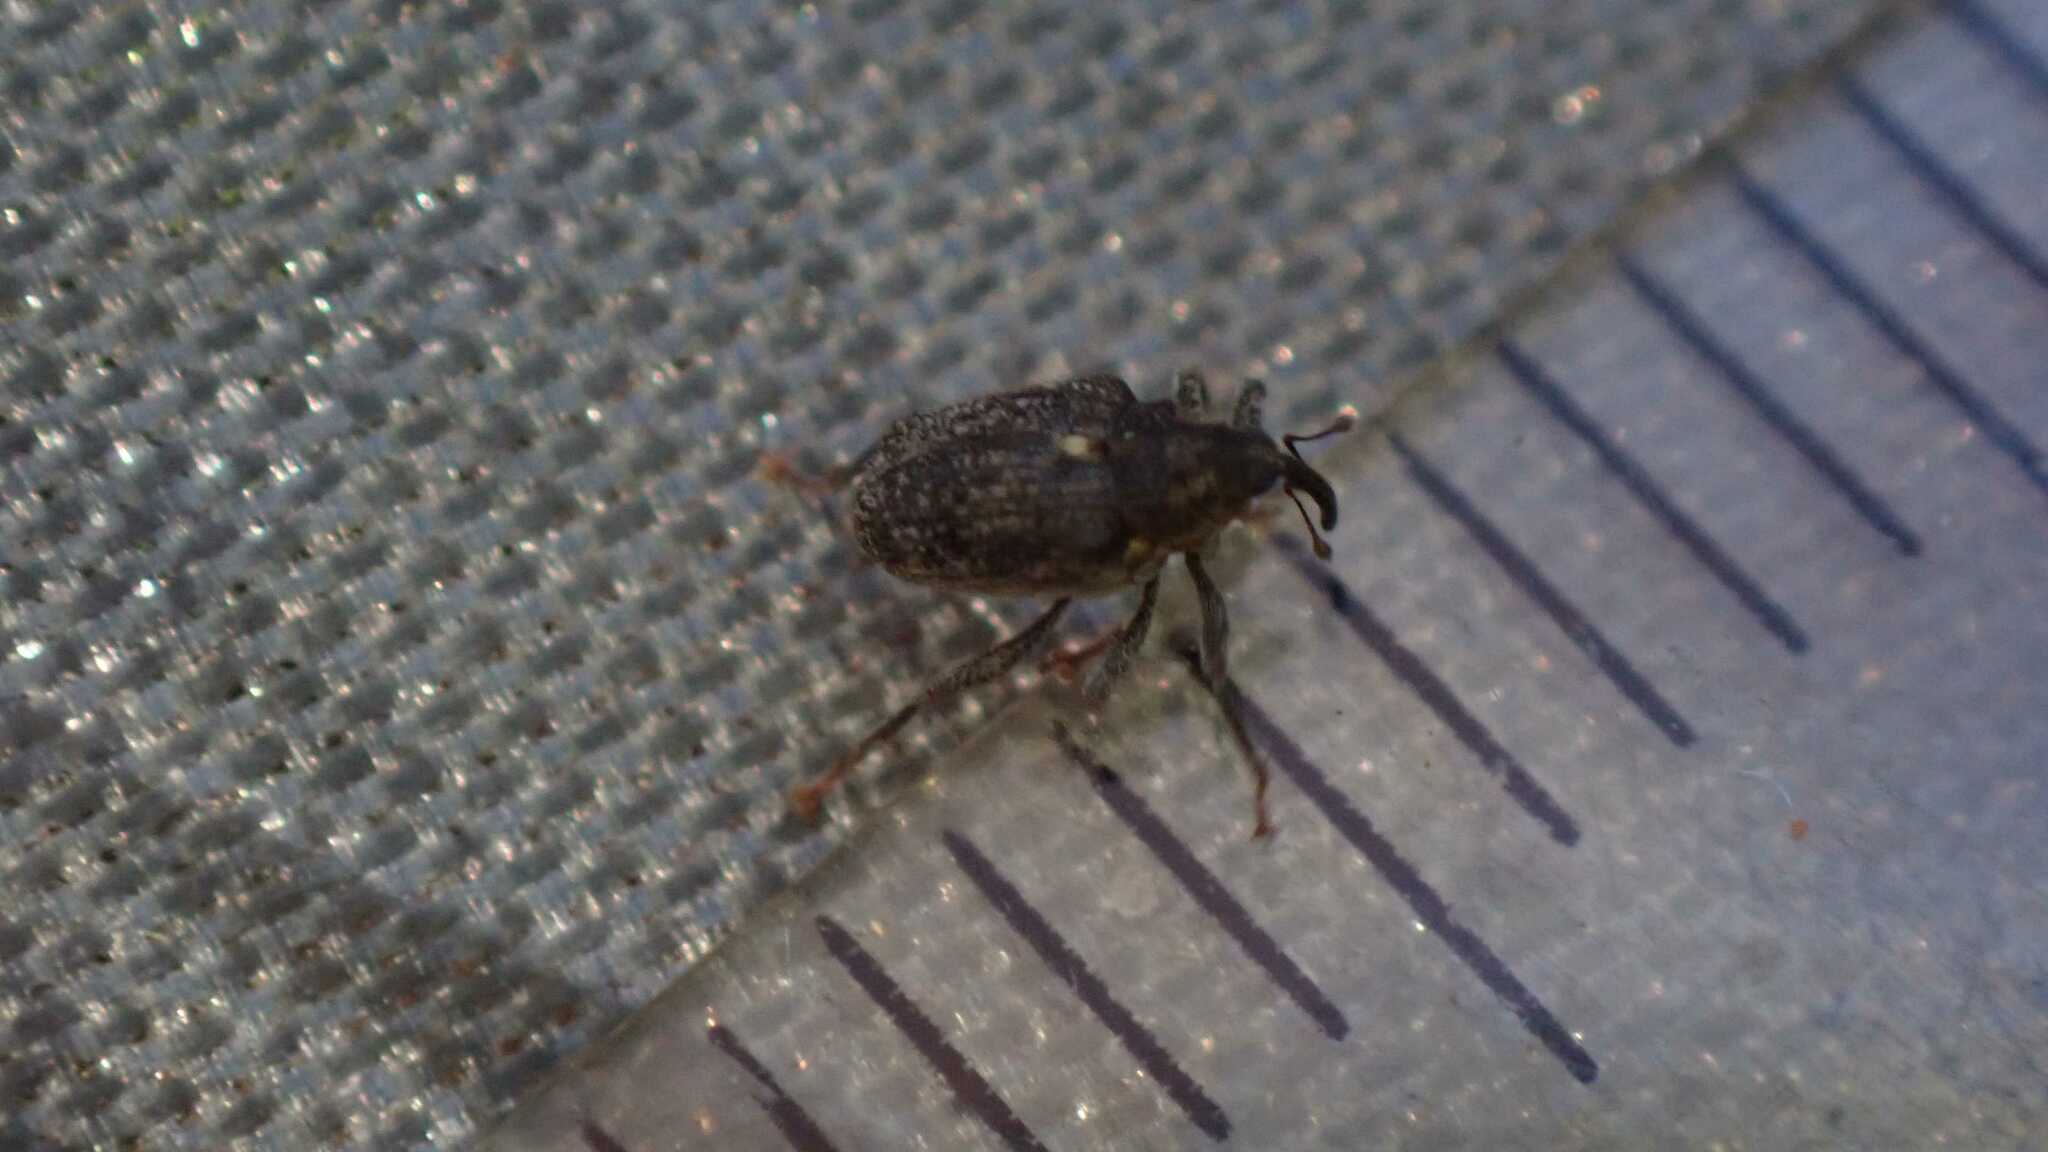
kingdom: Animalia
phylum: Arthropoda
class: Insecta
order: Coleoptera
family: Curculionidae
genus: Ceutorhynchus
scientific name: Ceutorhynchus pallidactylus
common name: Cabbage stem weavil
